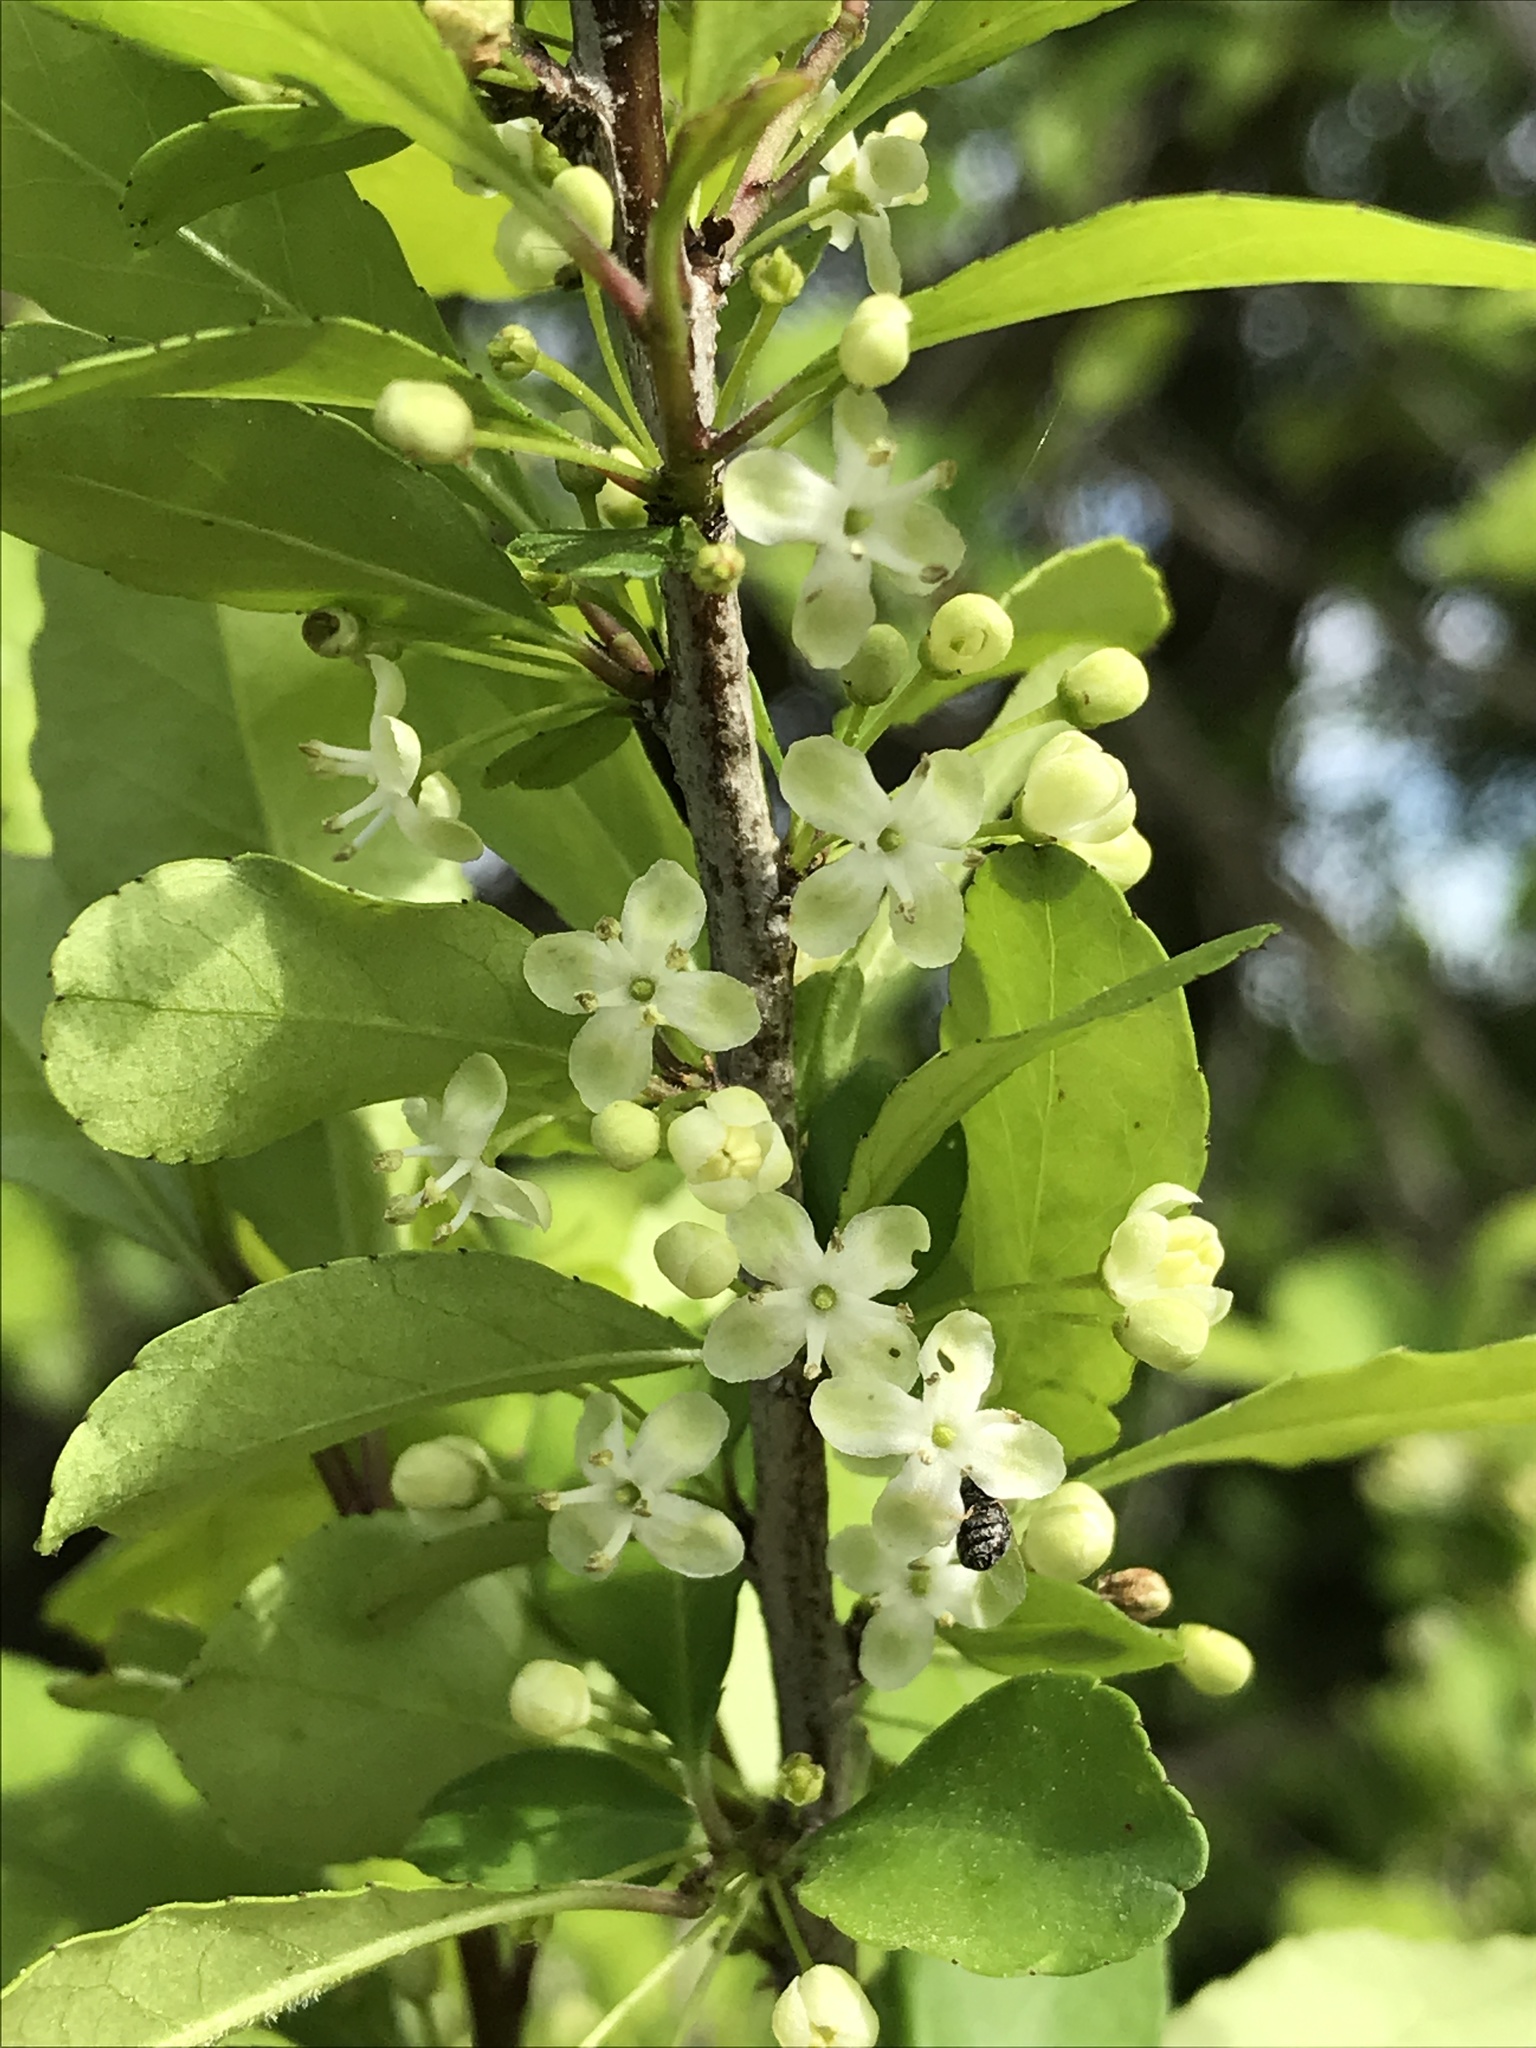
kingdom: Plantae
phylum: Tracheophyta
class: Magnoliopsida
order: Aquifoliales
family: Aquifoliaceae
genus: Ilex
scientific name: Ilex decidua
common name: Possum-haw
